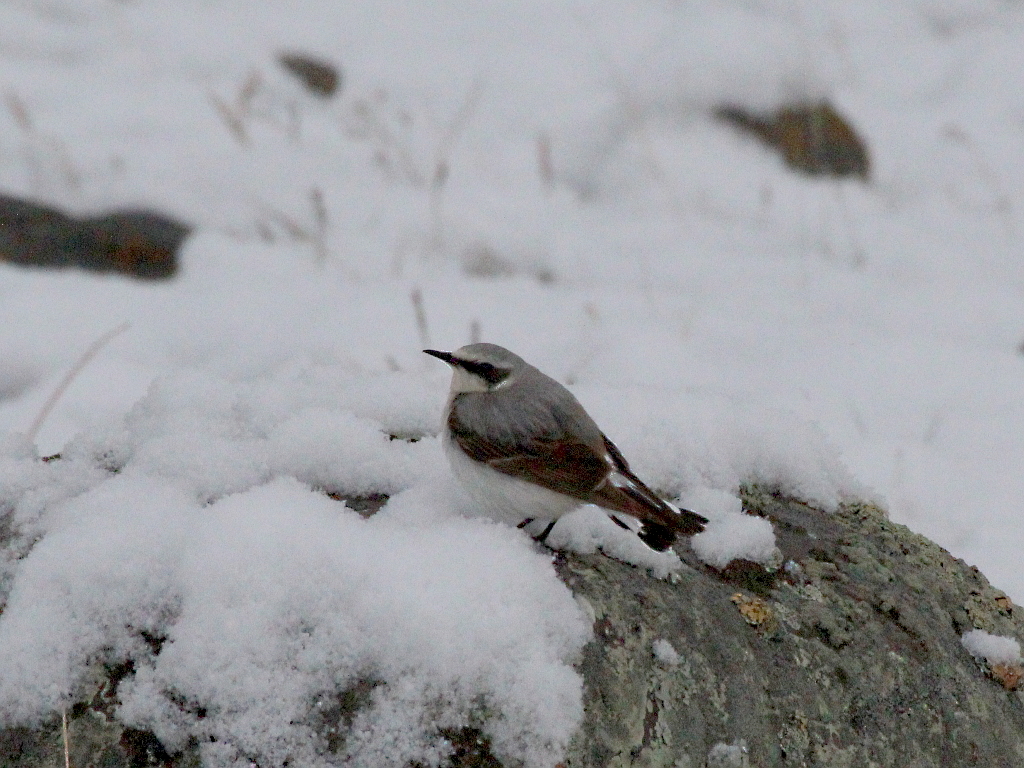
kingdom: Animalia
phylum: Chordata
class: Aves
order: Passeriformes
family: Muscicapidae
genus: Oenanthe
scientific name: Oenanthe oenanthe
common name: Northern wheatear
